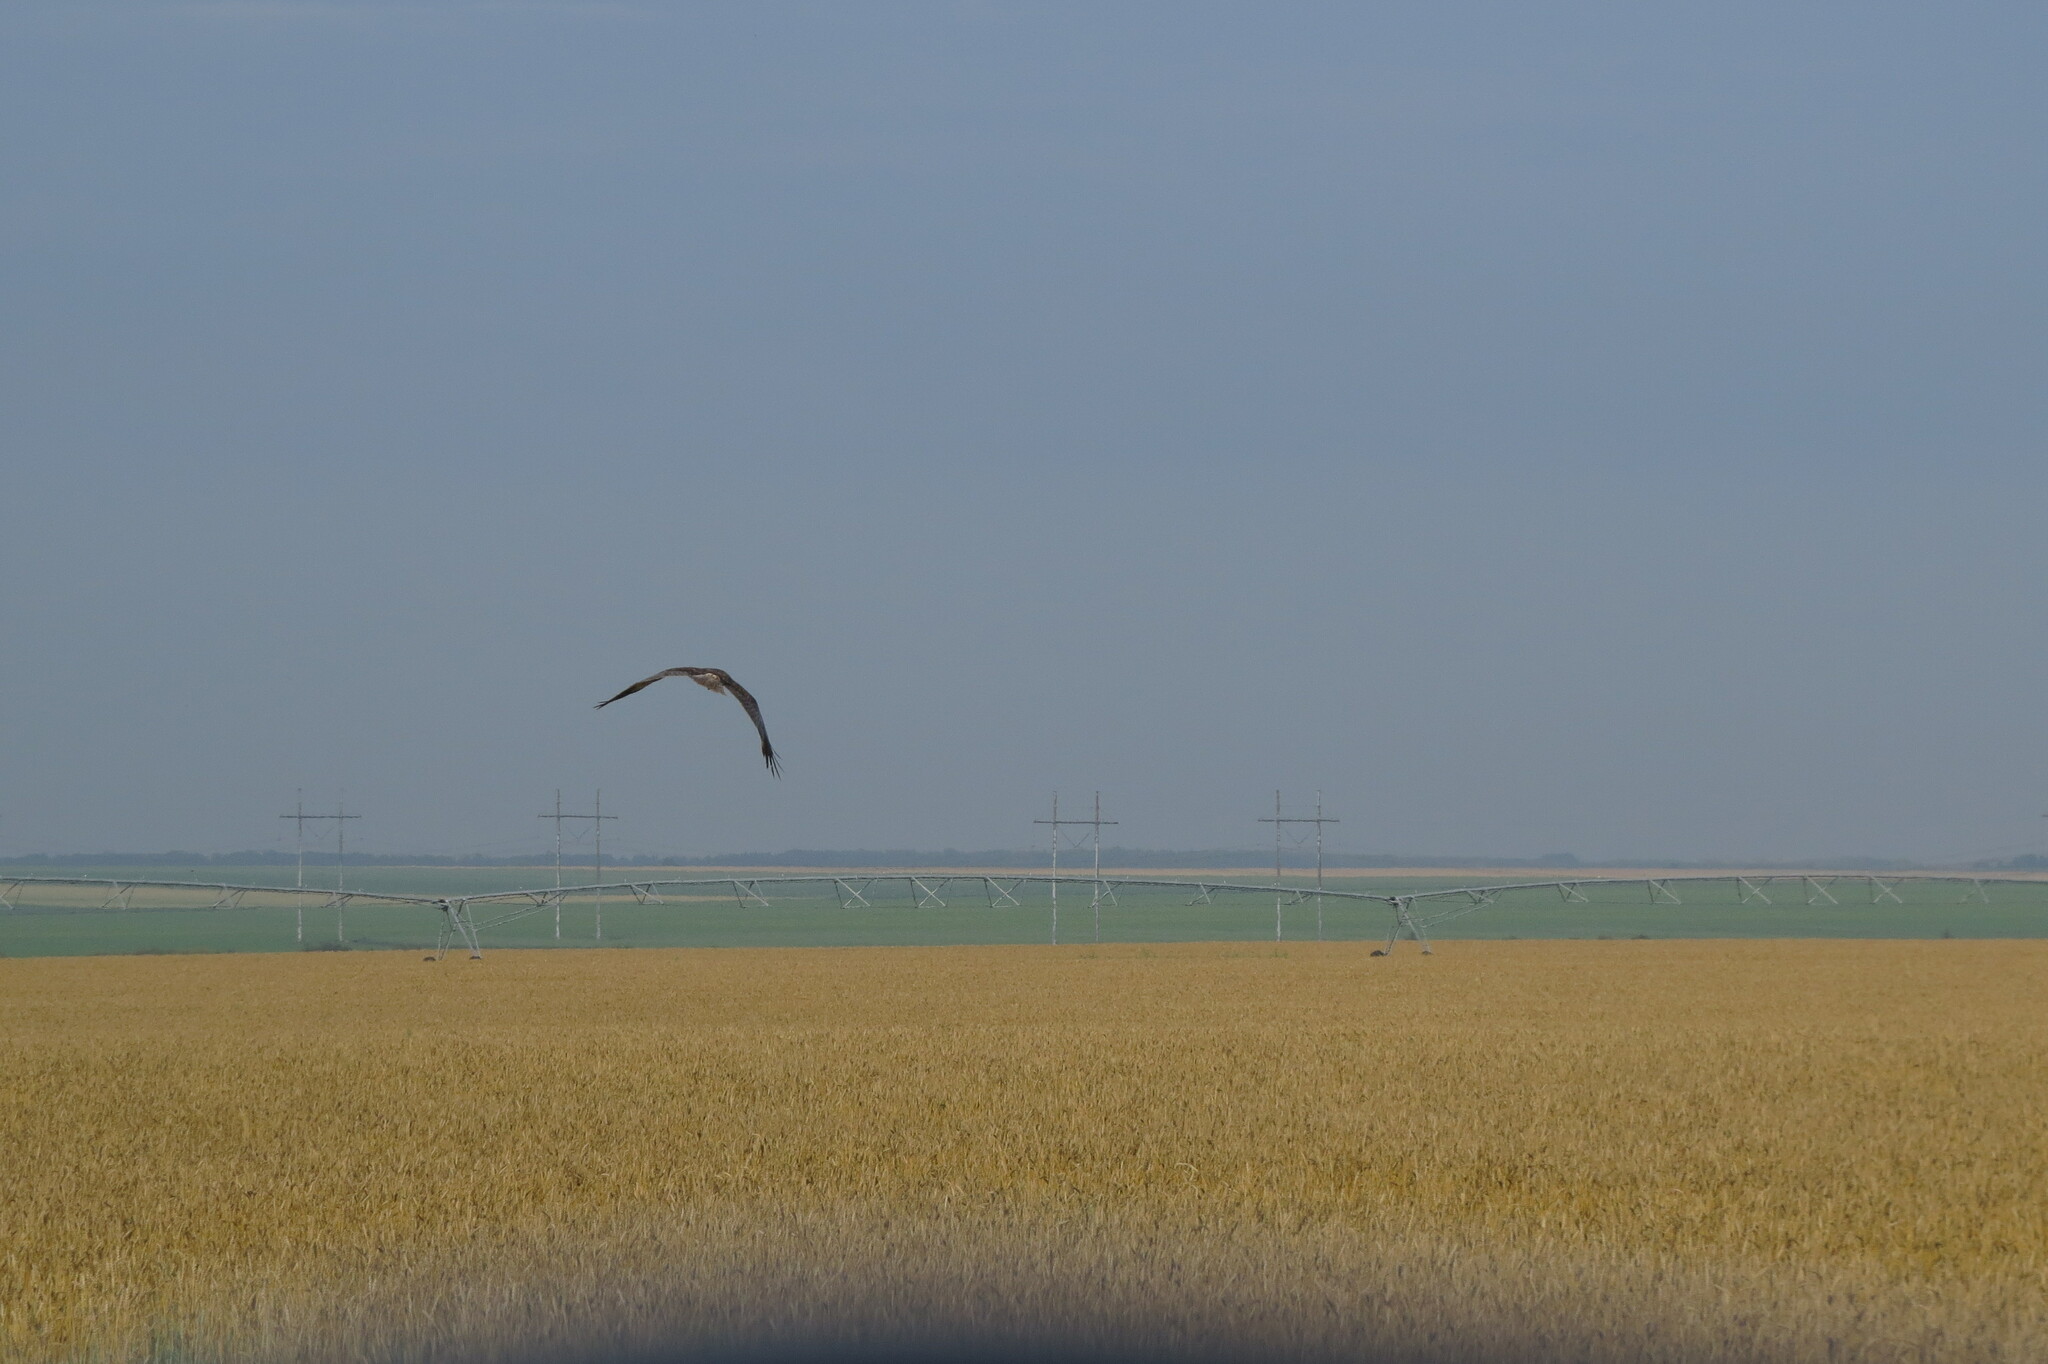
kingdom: Animalia
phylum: Chordata
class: Aves
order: Accipitriformes
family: Accipitridae
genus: Circus
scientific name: Circus aeruginosus
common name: Western marsh harrier
